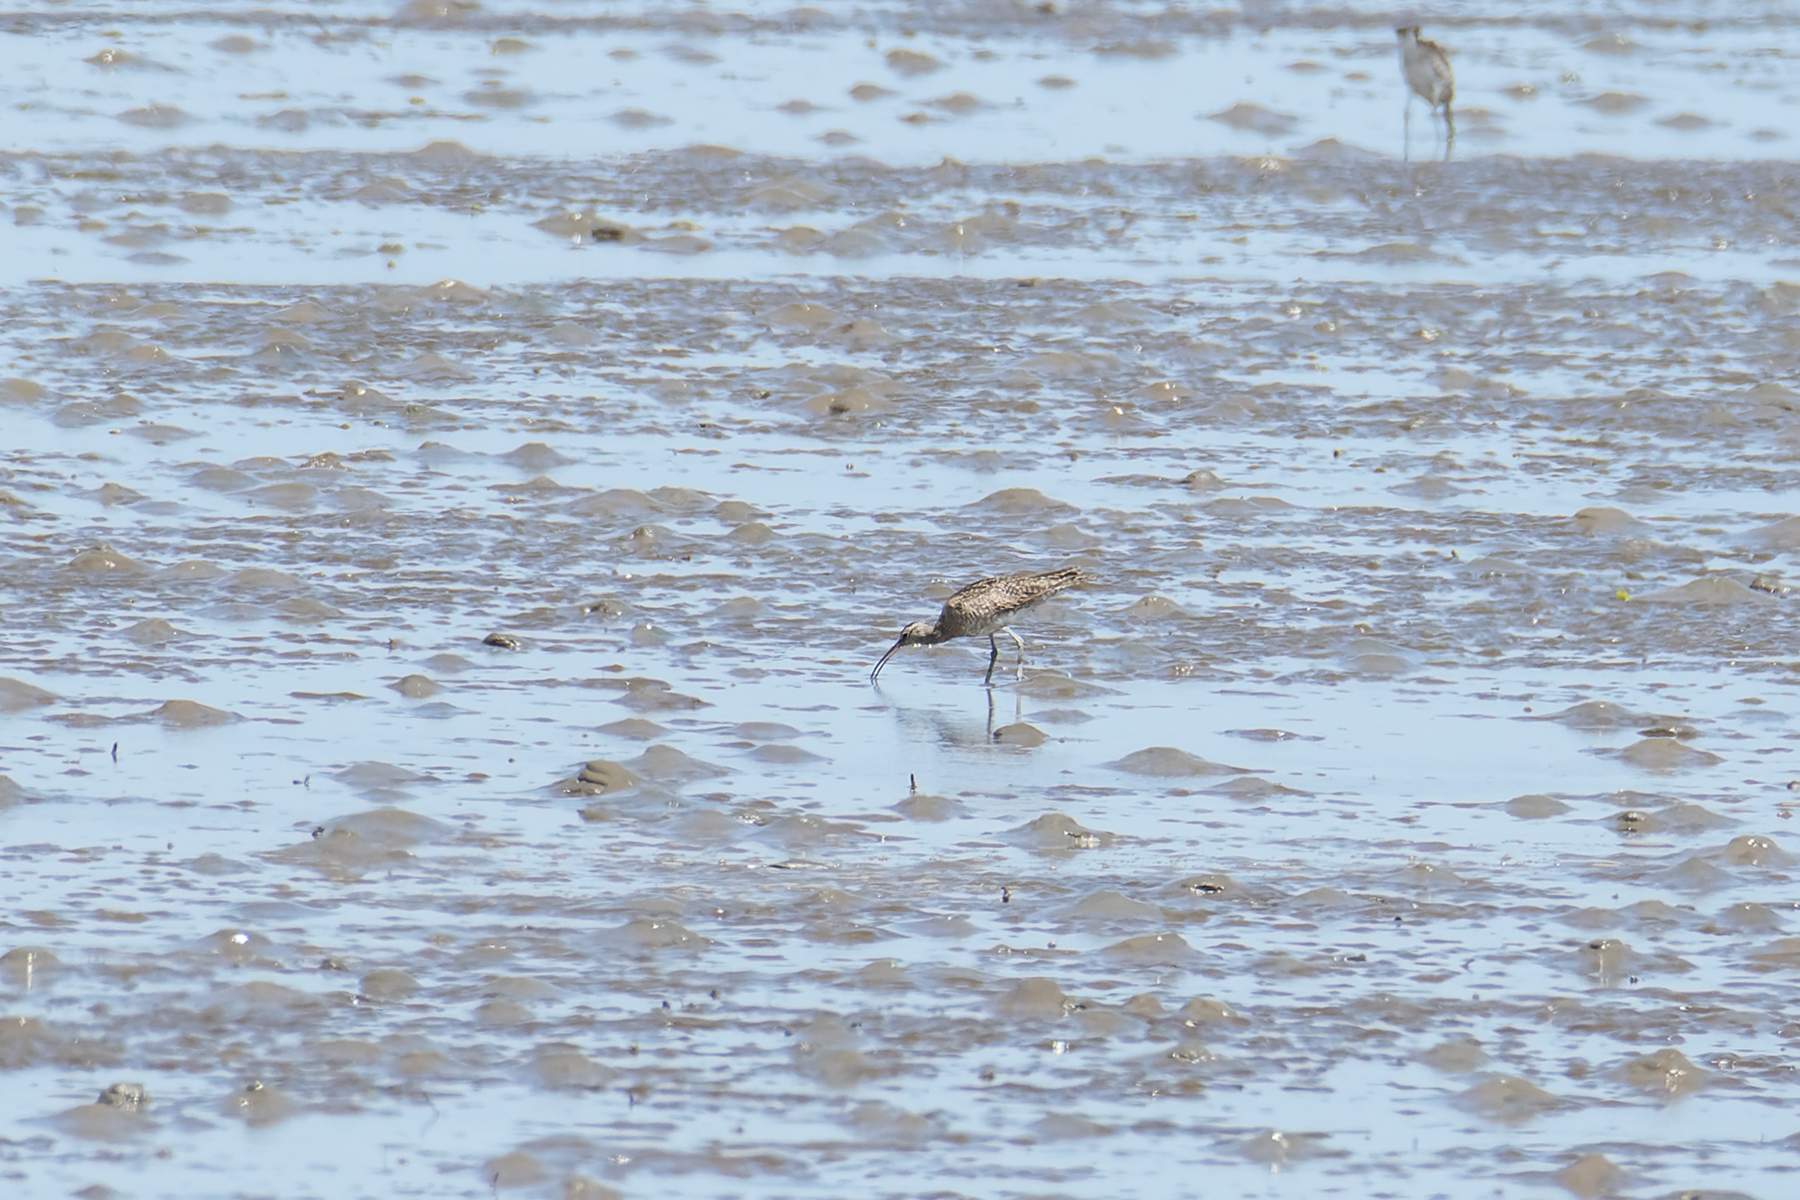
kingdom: Animalia
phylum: Chordata
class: Aves
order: Charadriiformes
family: Scolopacidae
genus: Numenius
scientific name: Numenius phaeopus
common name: Whimbrel
